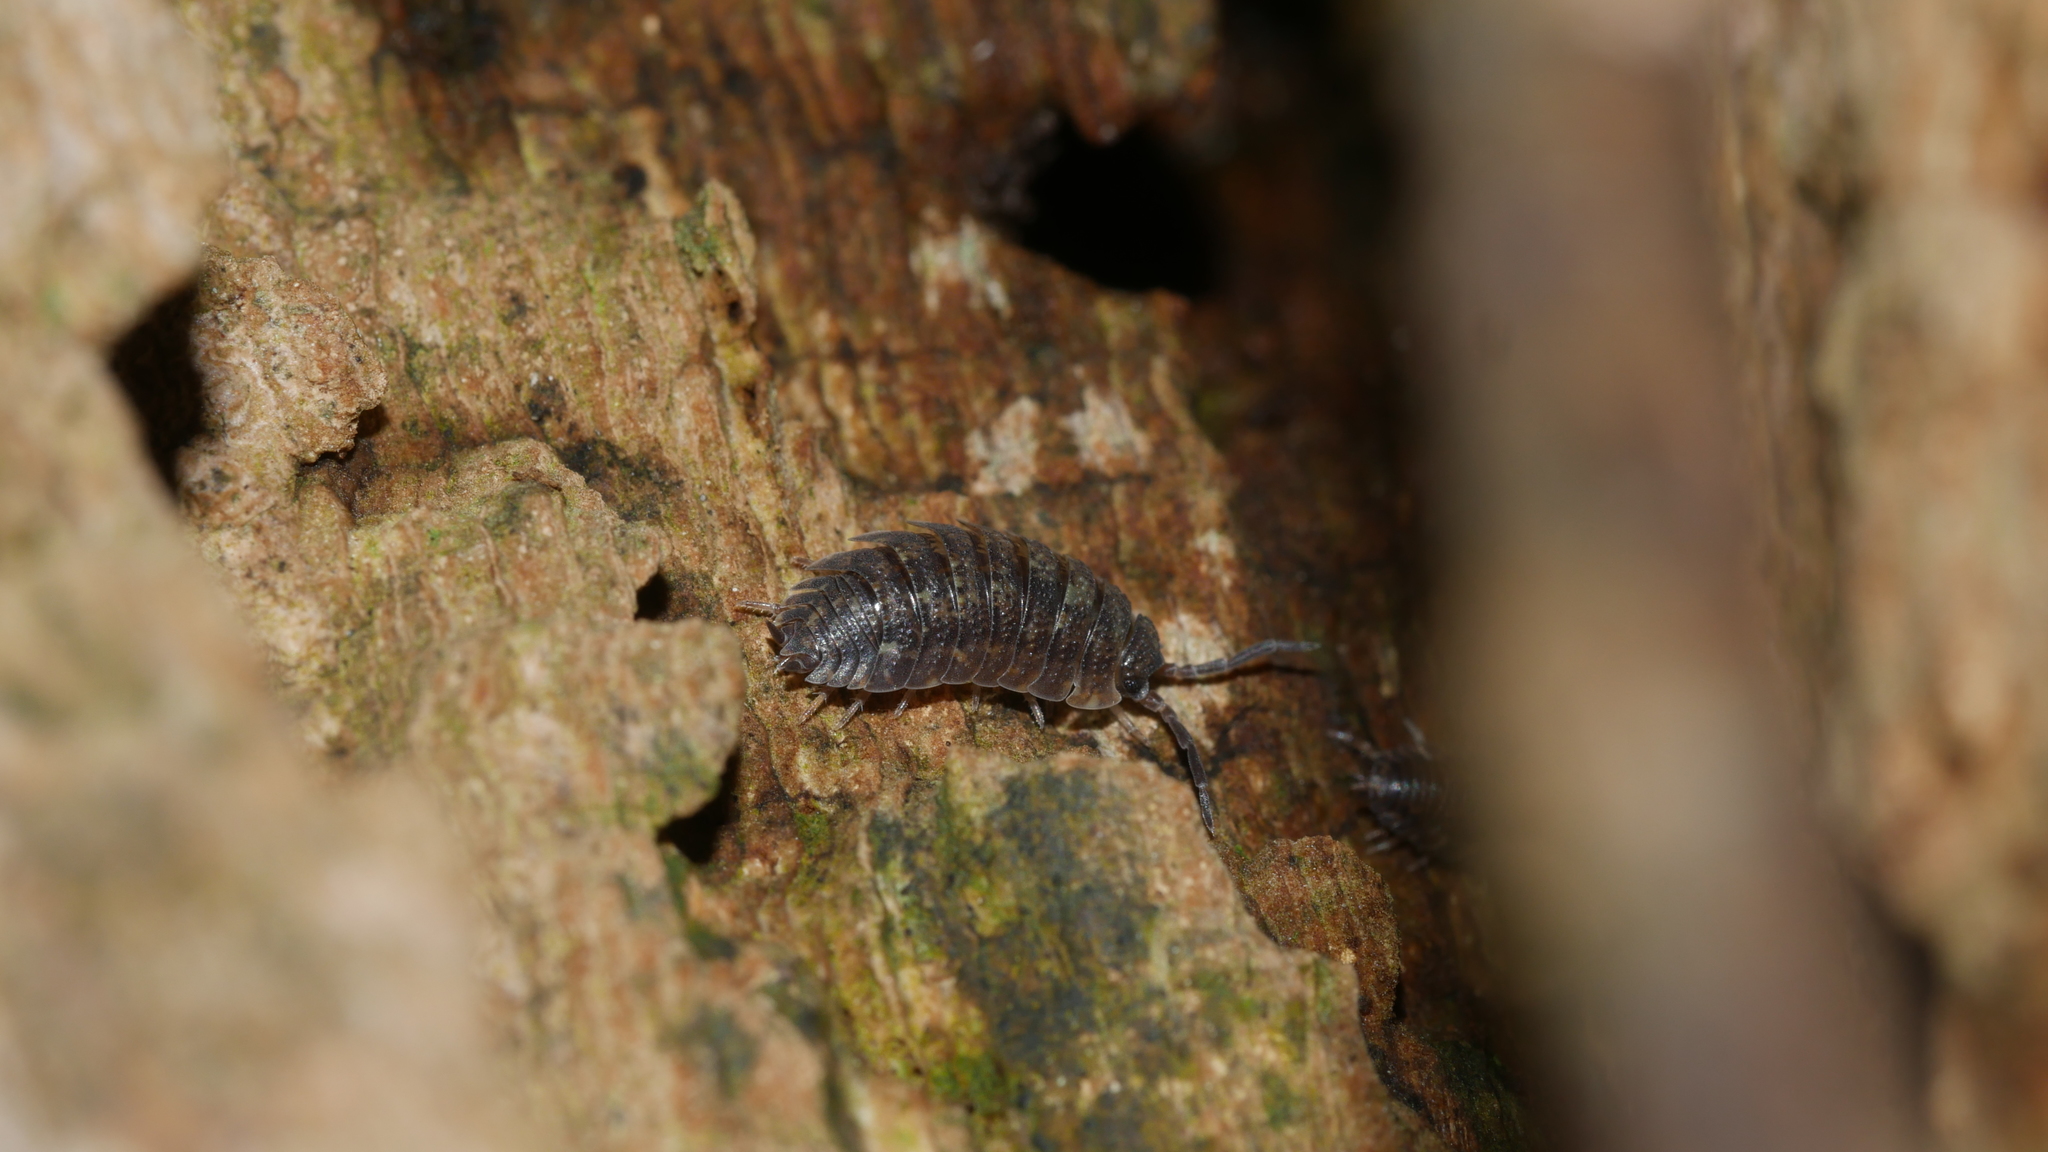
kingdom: Animalia
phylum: Arthropoda
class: Malacostraca
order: Isopoda
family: Porcellionidae
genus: Porcellio
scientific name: Porcellio scaber
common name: Common rough woodlouse
